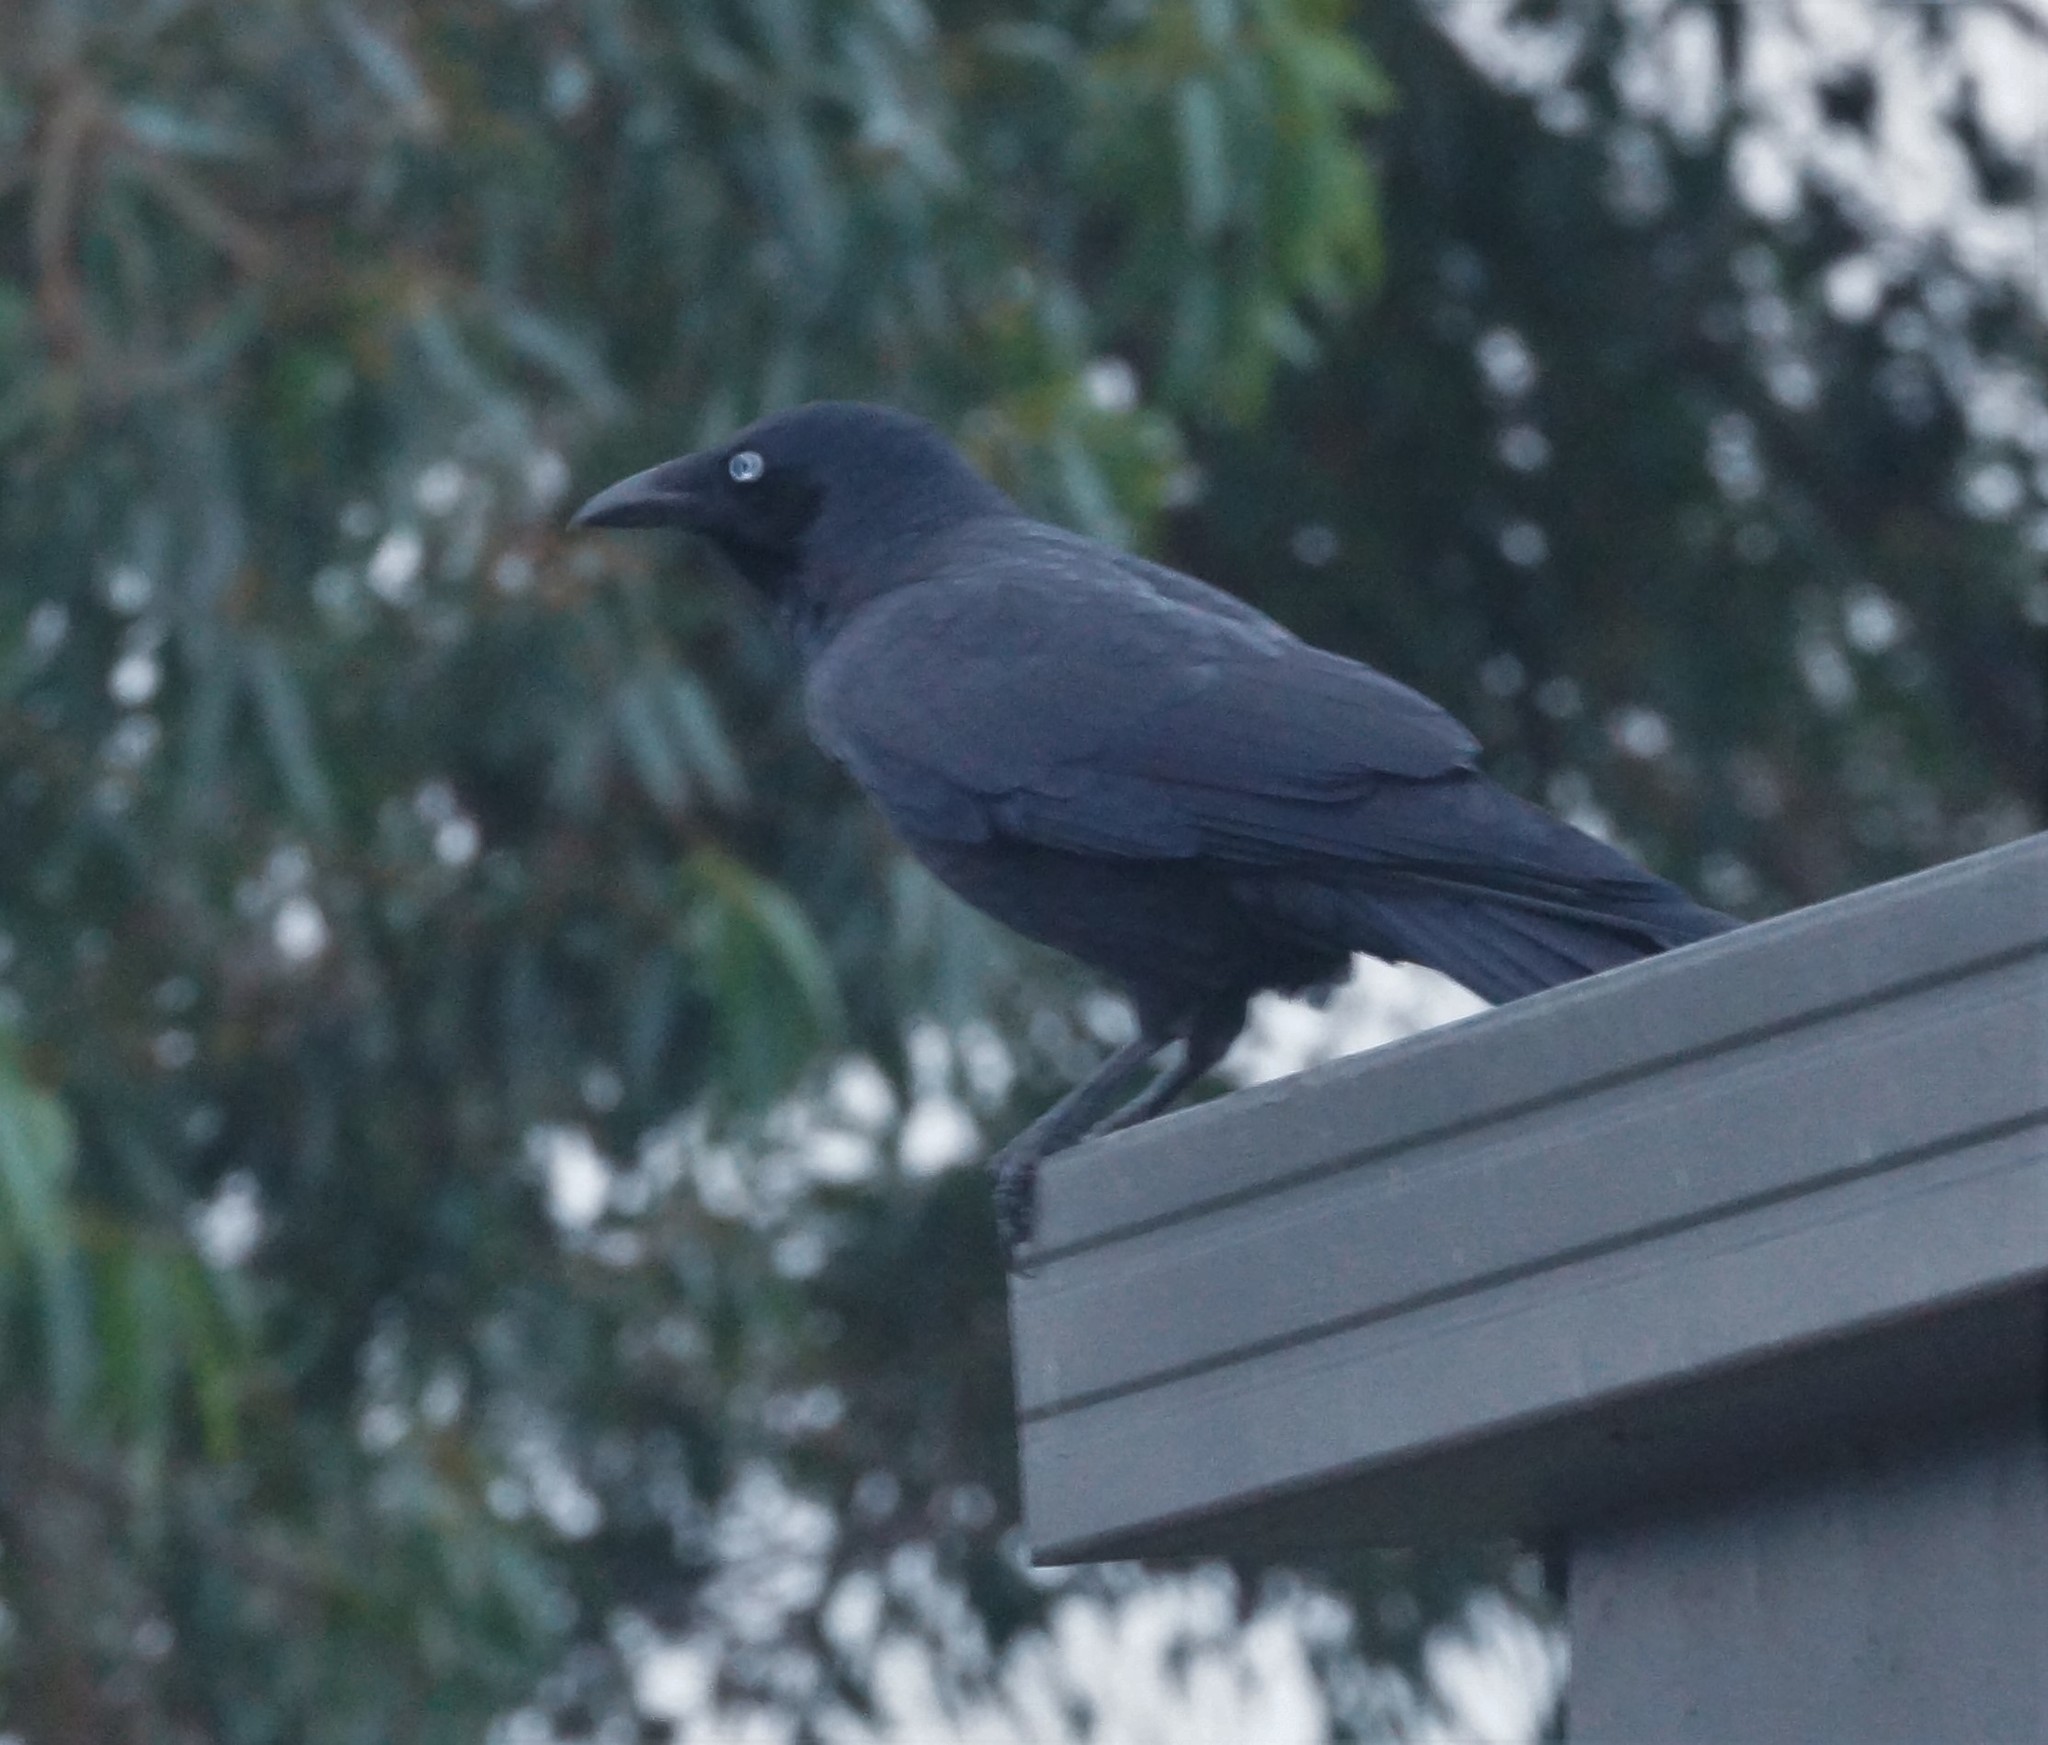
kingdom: Animalia
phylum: Chordata
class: Aves
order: Passeriformes
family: Corvidae
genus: Corvus
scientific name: Corvus mellori
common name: Little raven
